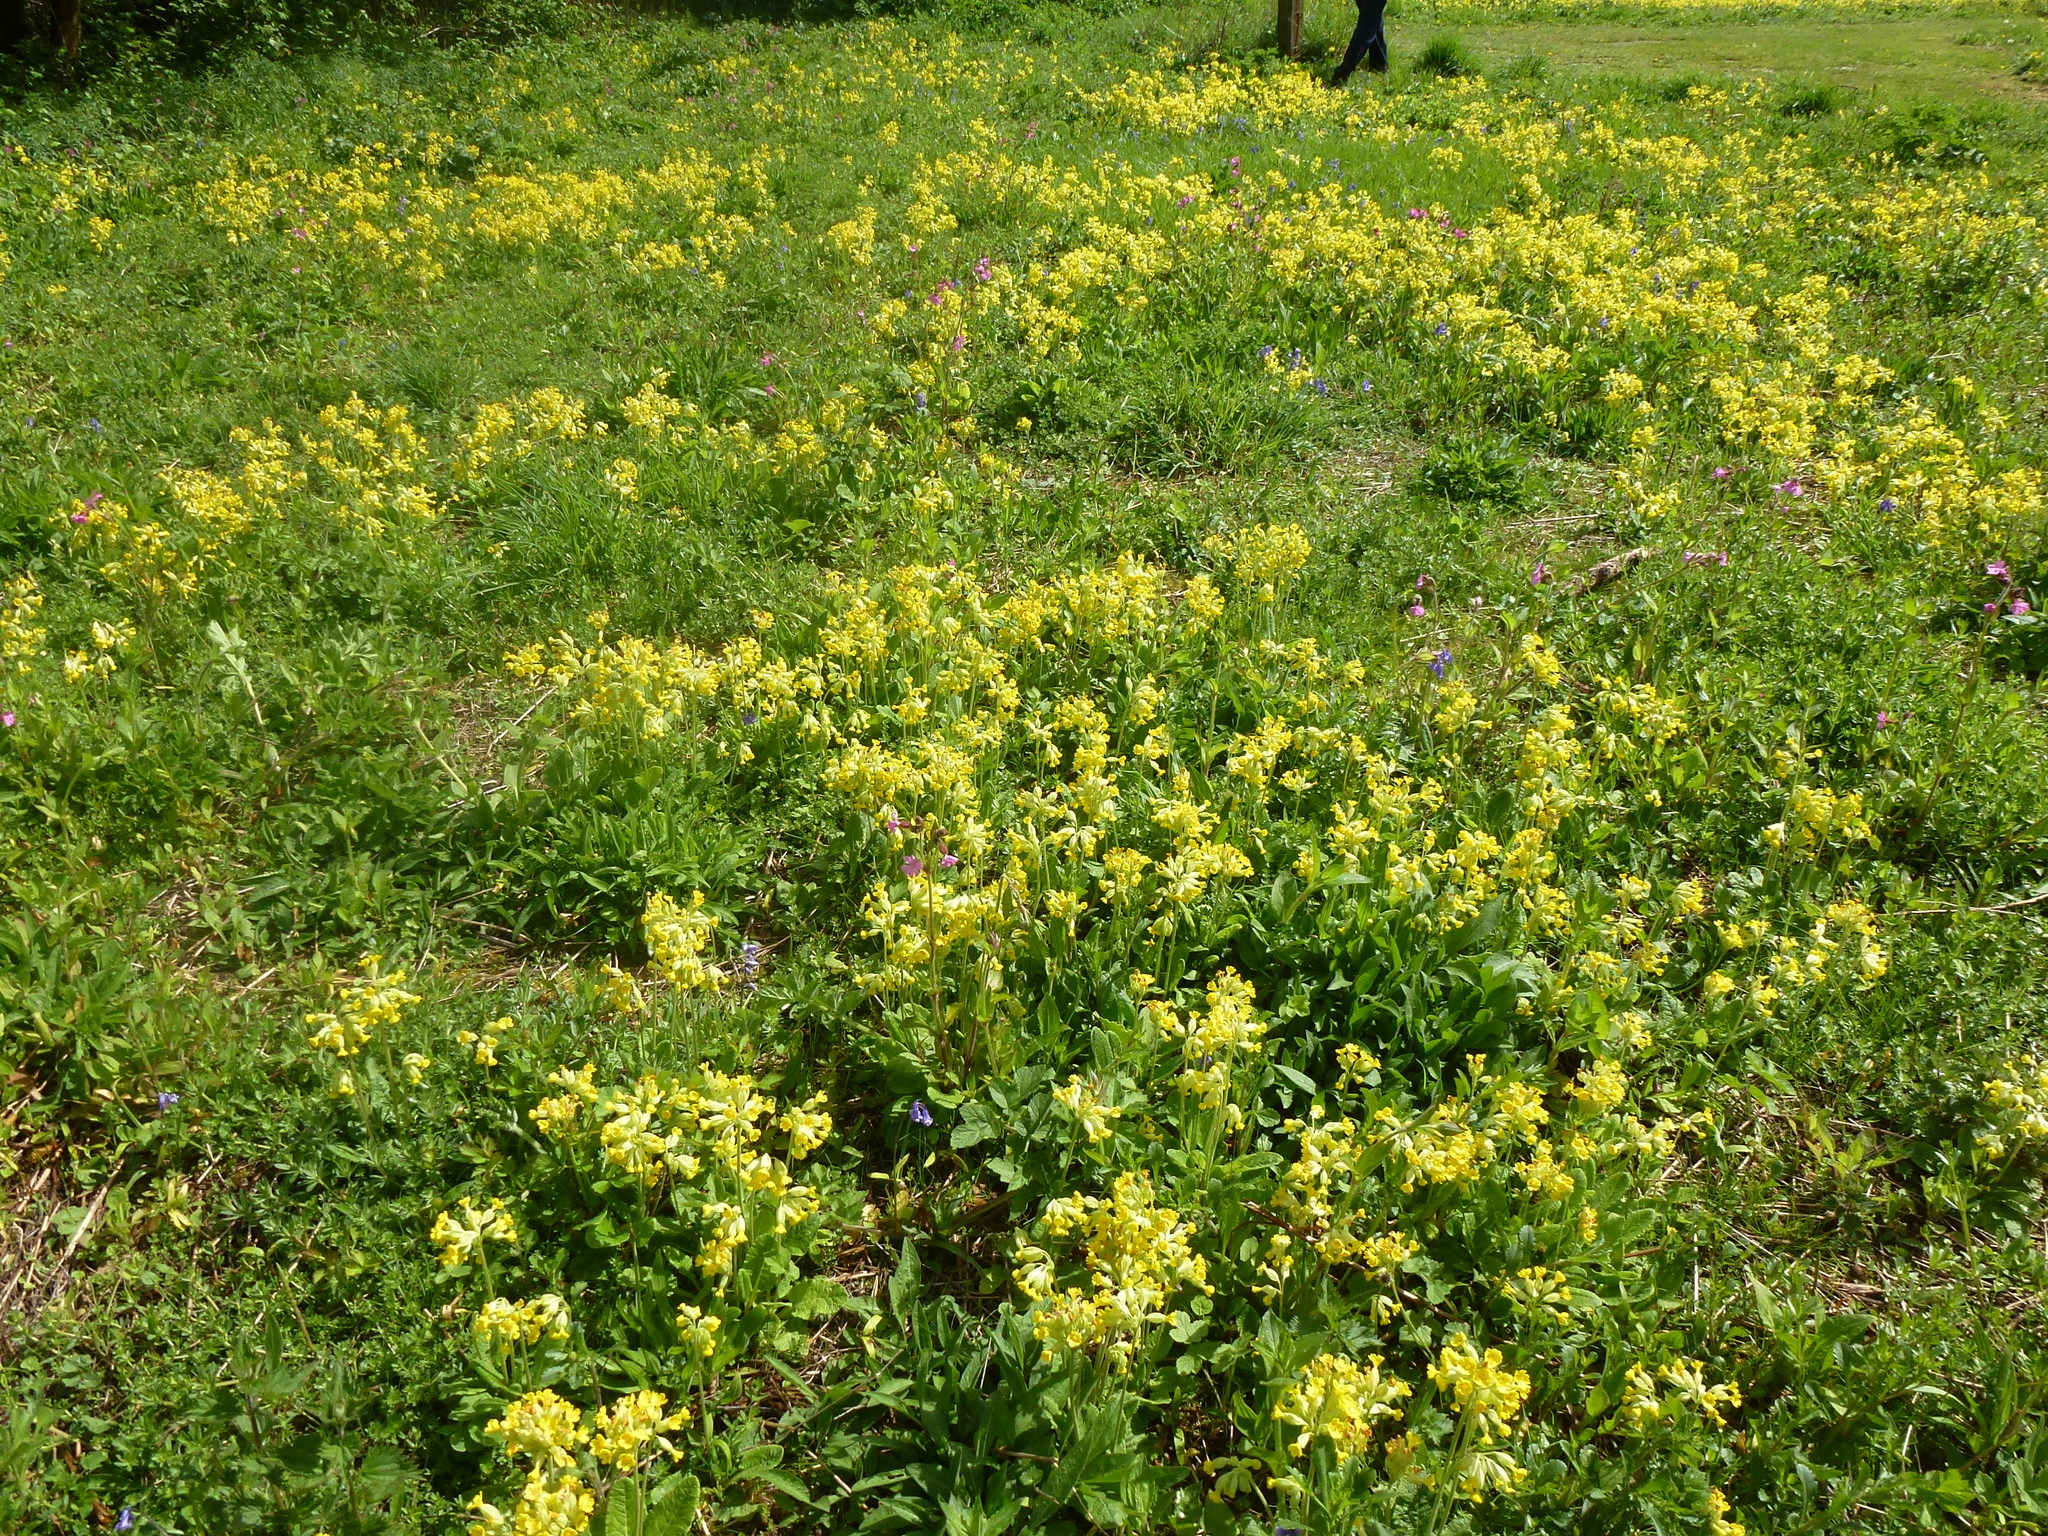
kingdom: Plantae
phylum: Tracheophyta
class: Magnoliopsida
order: Ericales
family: Primulaceae
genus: Primula
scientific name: Primula veris
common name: Cowslip
